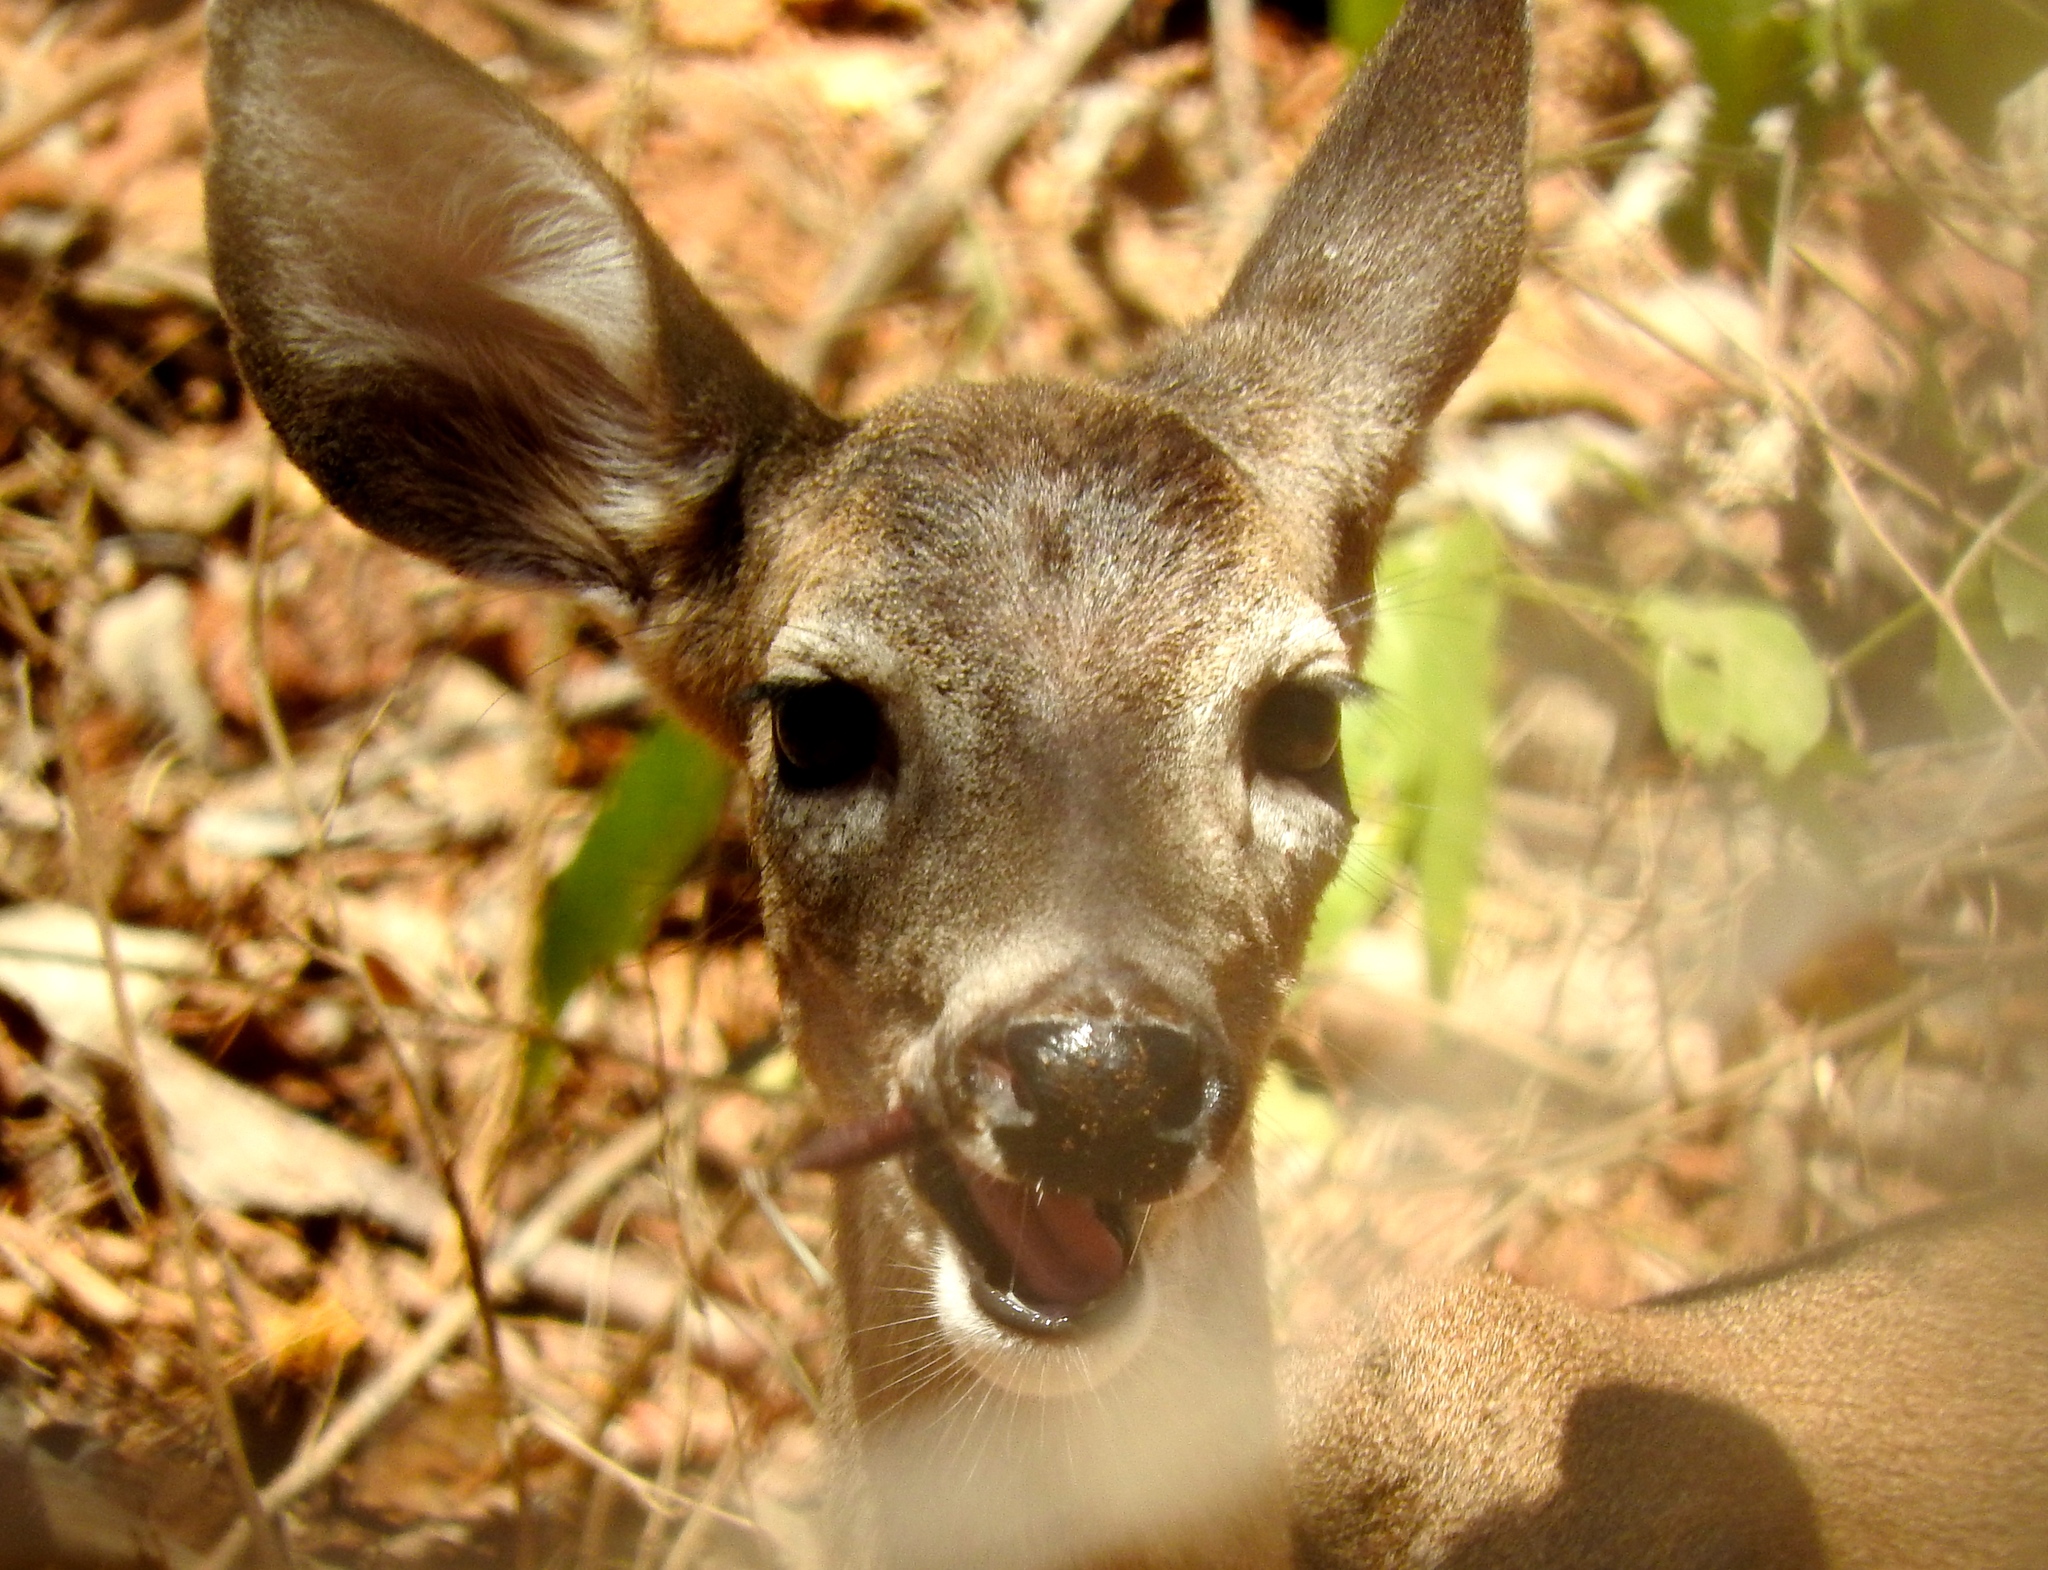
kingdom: Animalia
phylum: Chordata
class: Mammalia
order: Artiodactyla
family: Cervidae
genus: Odocoileus
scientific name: Odocoileus virginianus
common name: White-tailed deer
